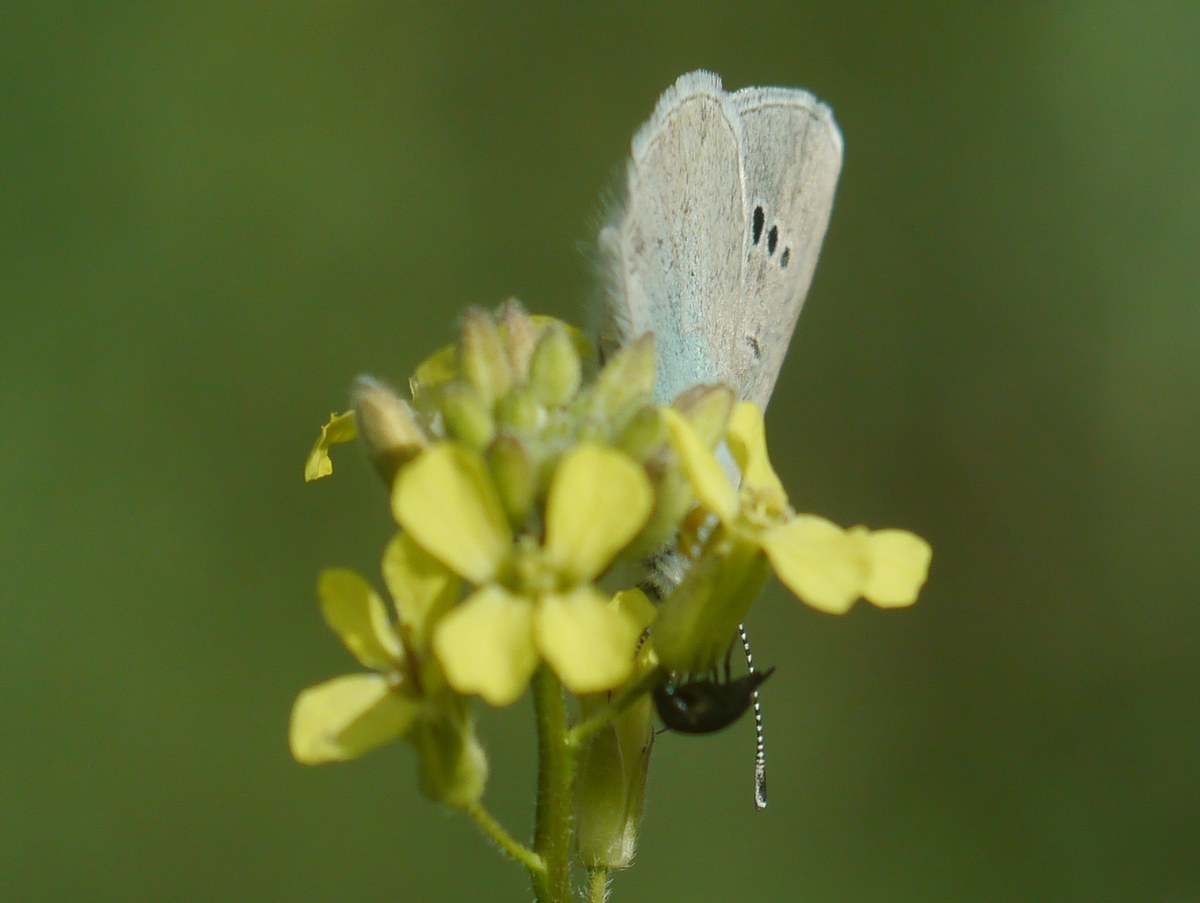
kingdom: Animalia
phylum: Arthropoda
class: Insecta
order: Lepidoptera
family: Lycaenidae
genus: Glaucopsyche
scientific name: Glaucopsyche alexis
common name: Green-underside blue
